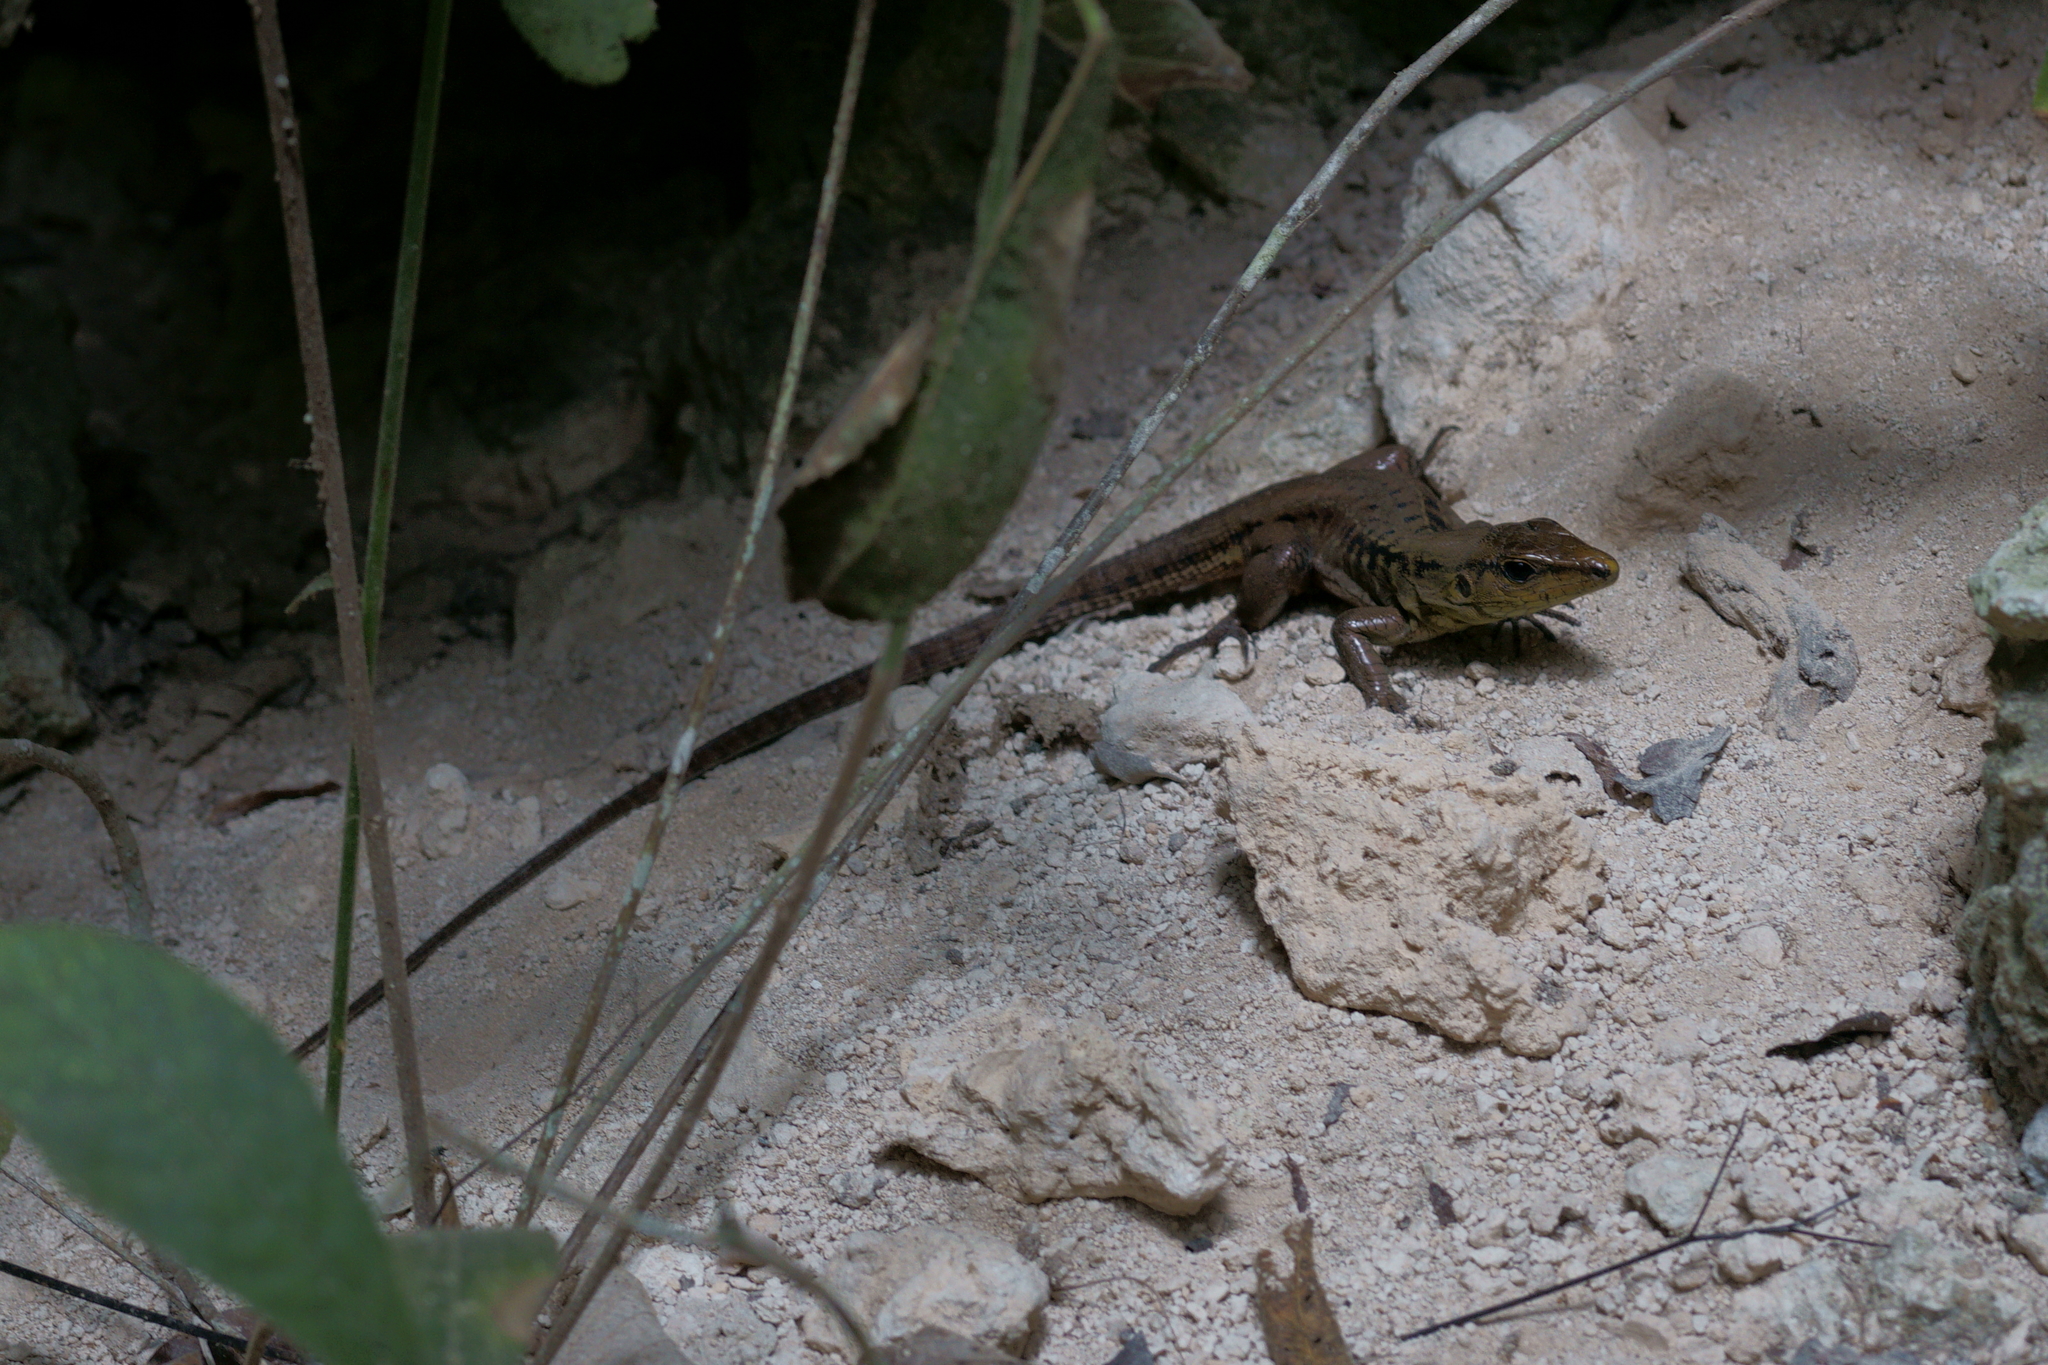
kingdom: Animalia
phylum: Chordata
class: Squamata
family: Teiidae
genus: Holcosus
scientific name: Holcosus undulatus
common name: Rainbow ameiva
